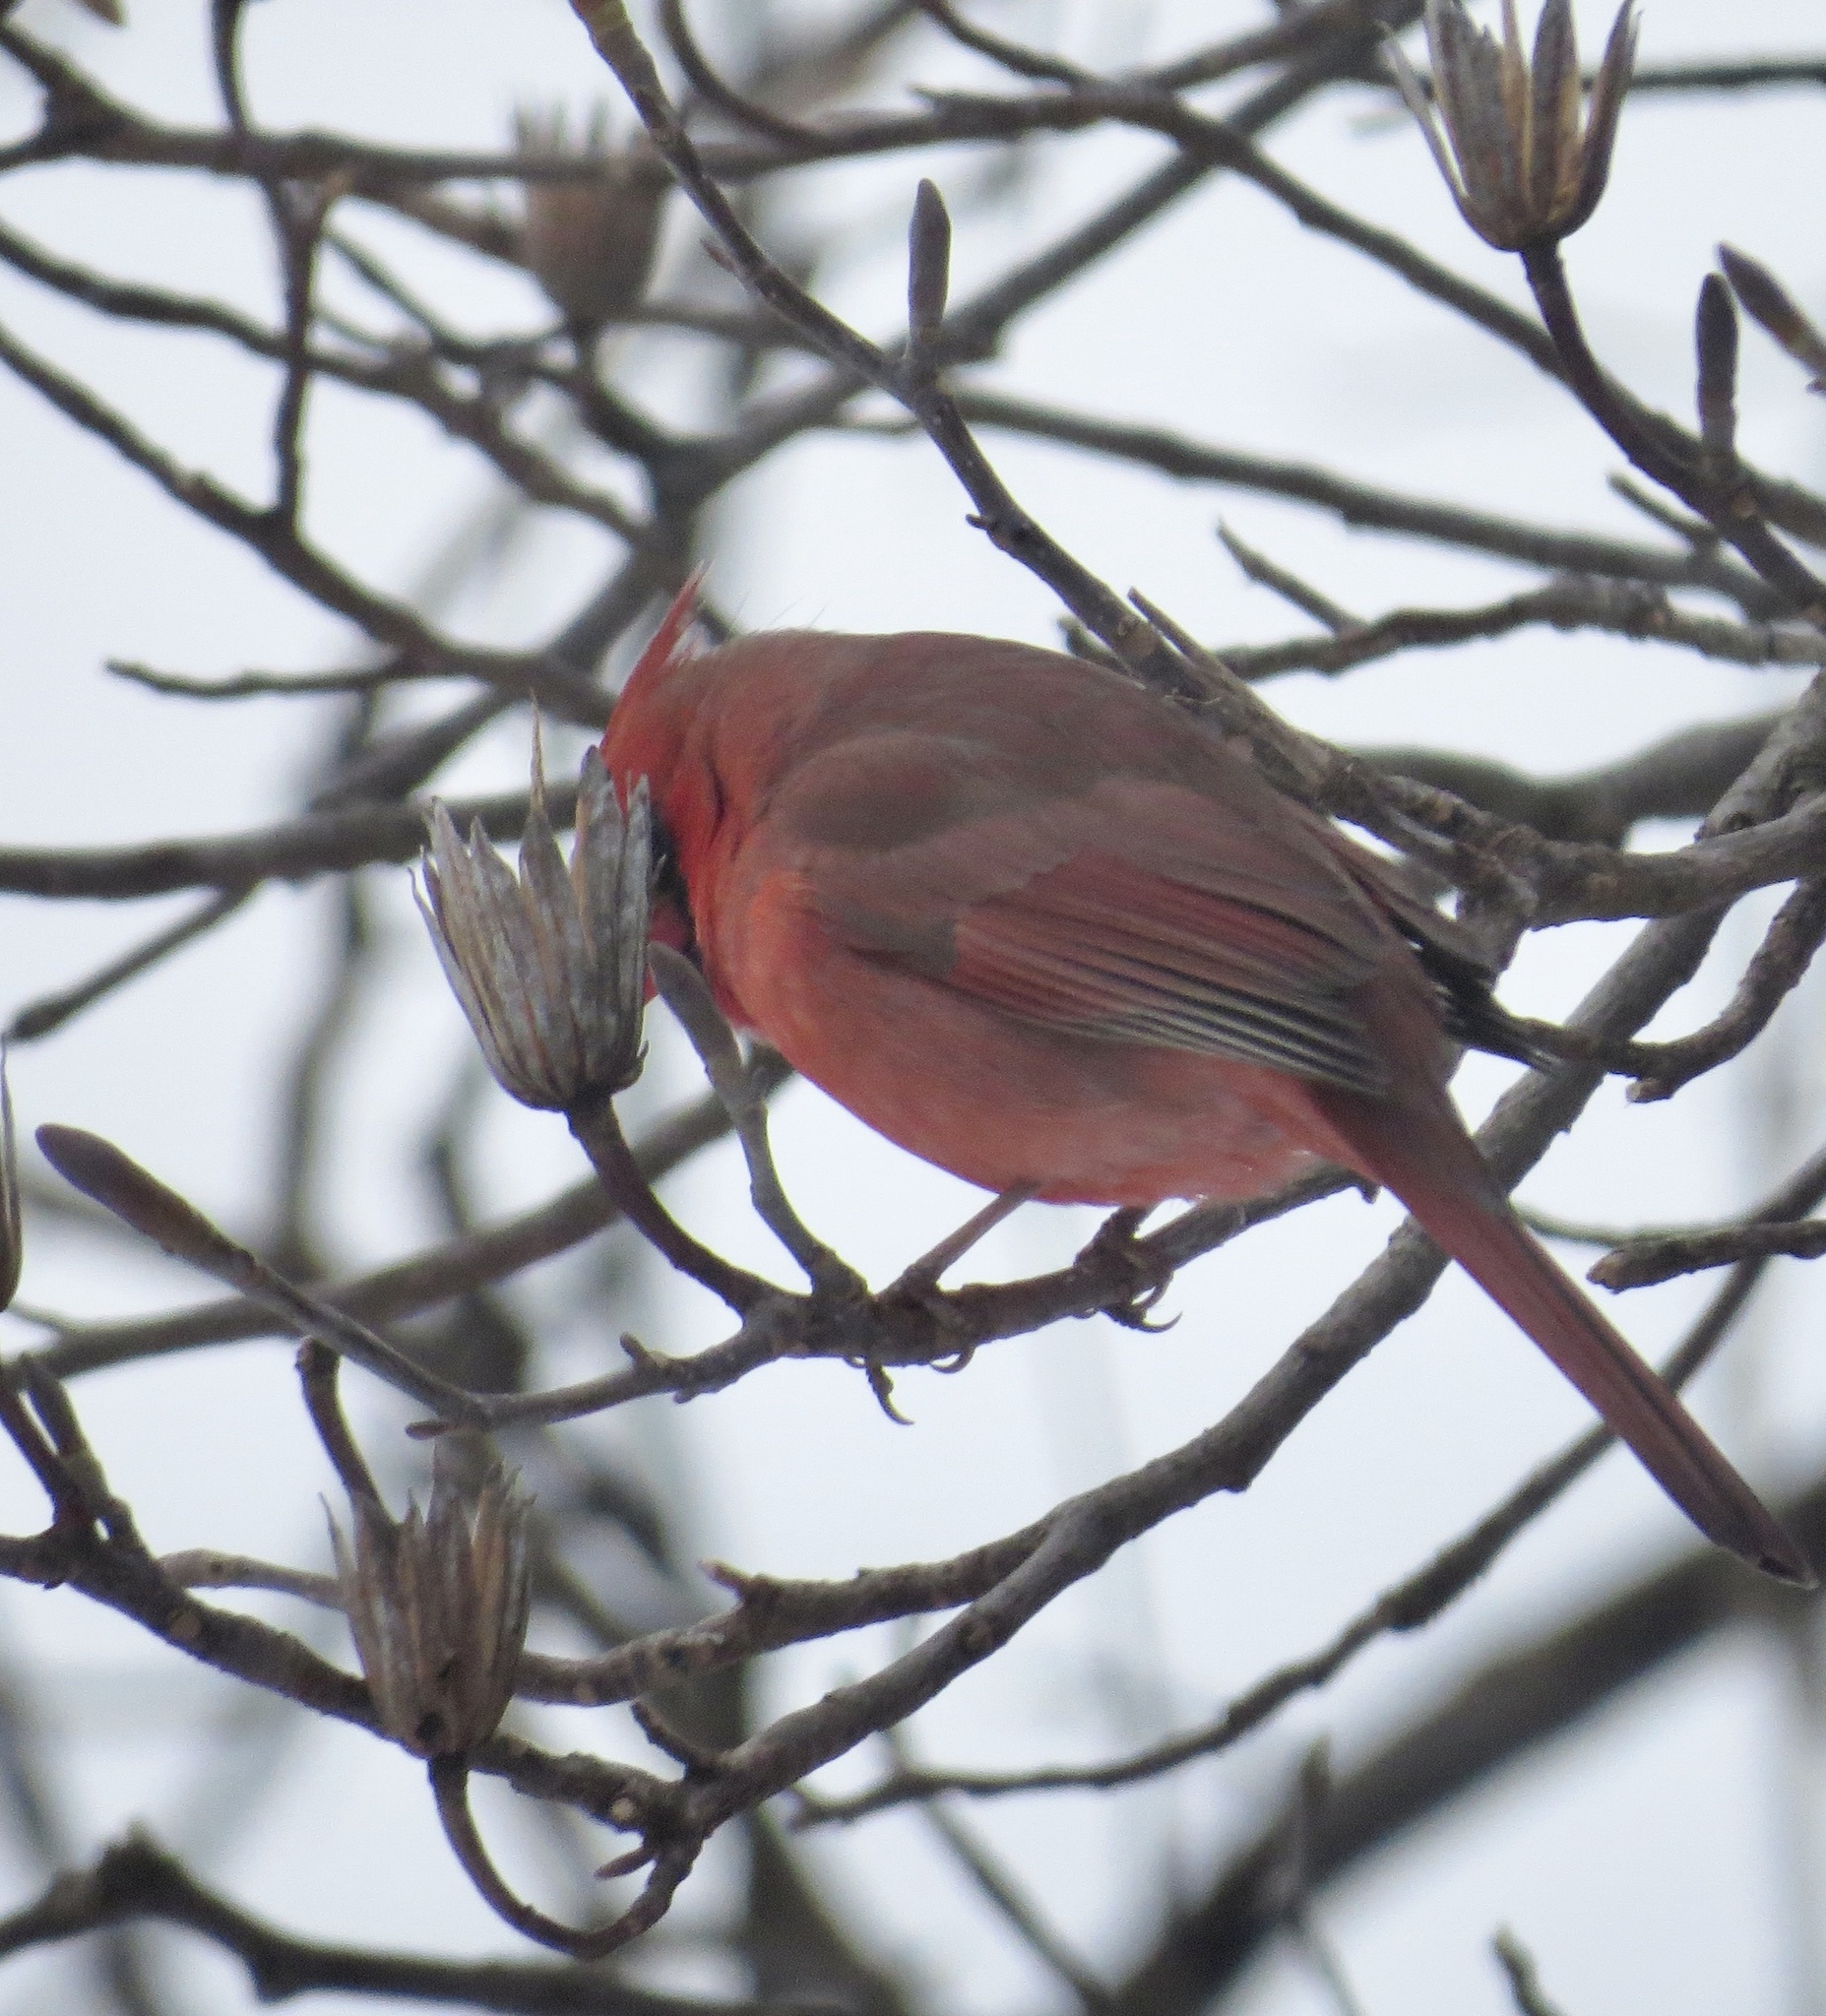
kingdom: Animalia
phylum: Chordata
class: Aves
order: Passeriformes
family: Cardinalidae
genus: Cardinalis
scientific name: Cardinalis cardinalis
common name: Northern cardinal
